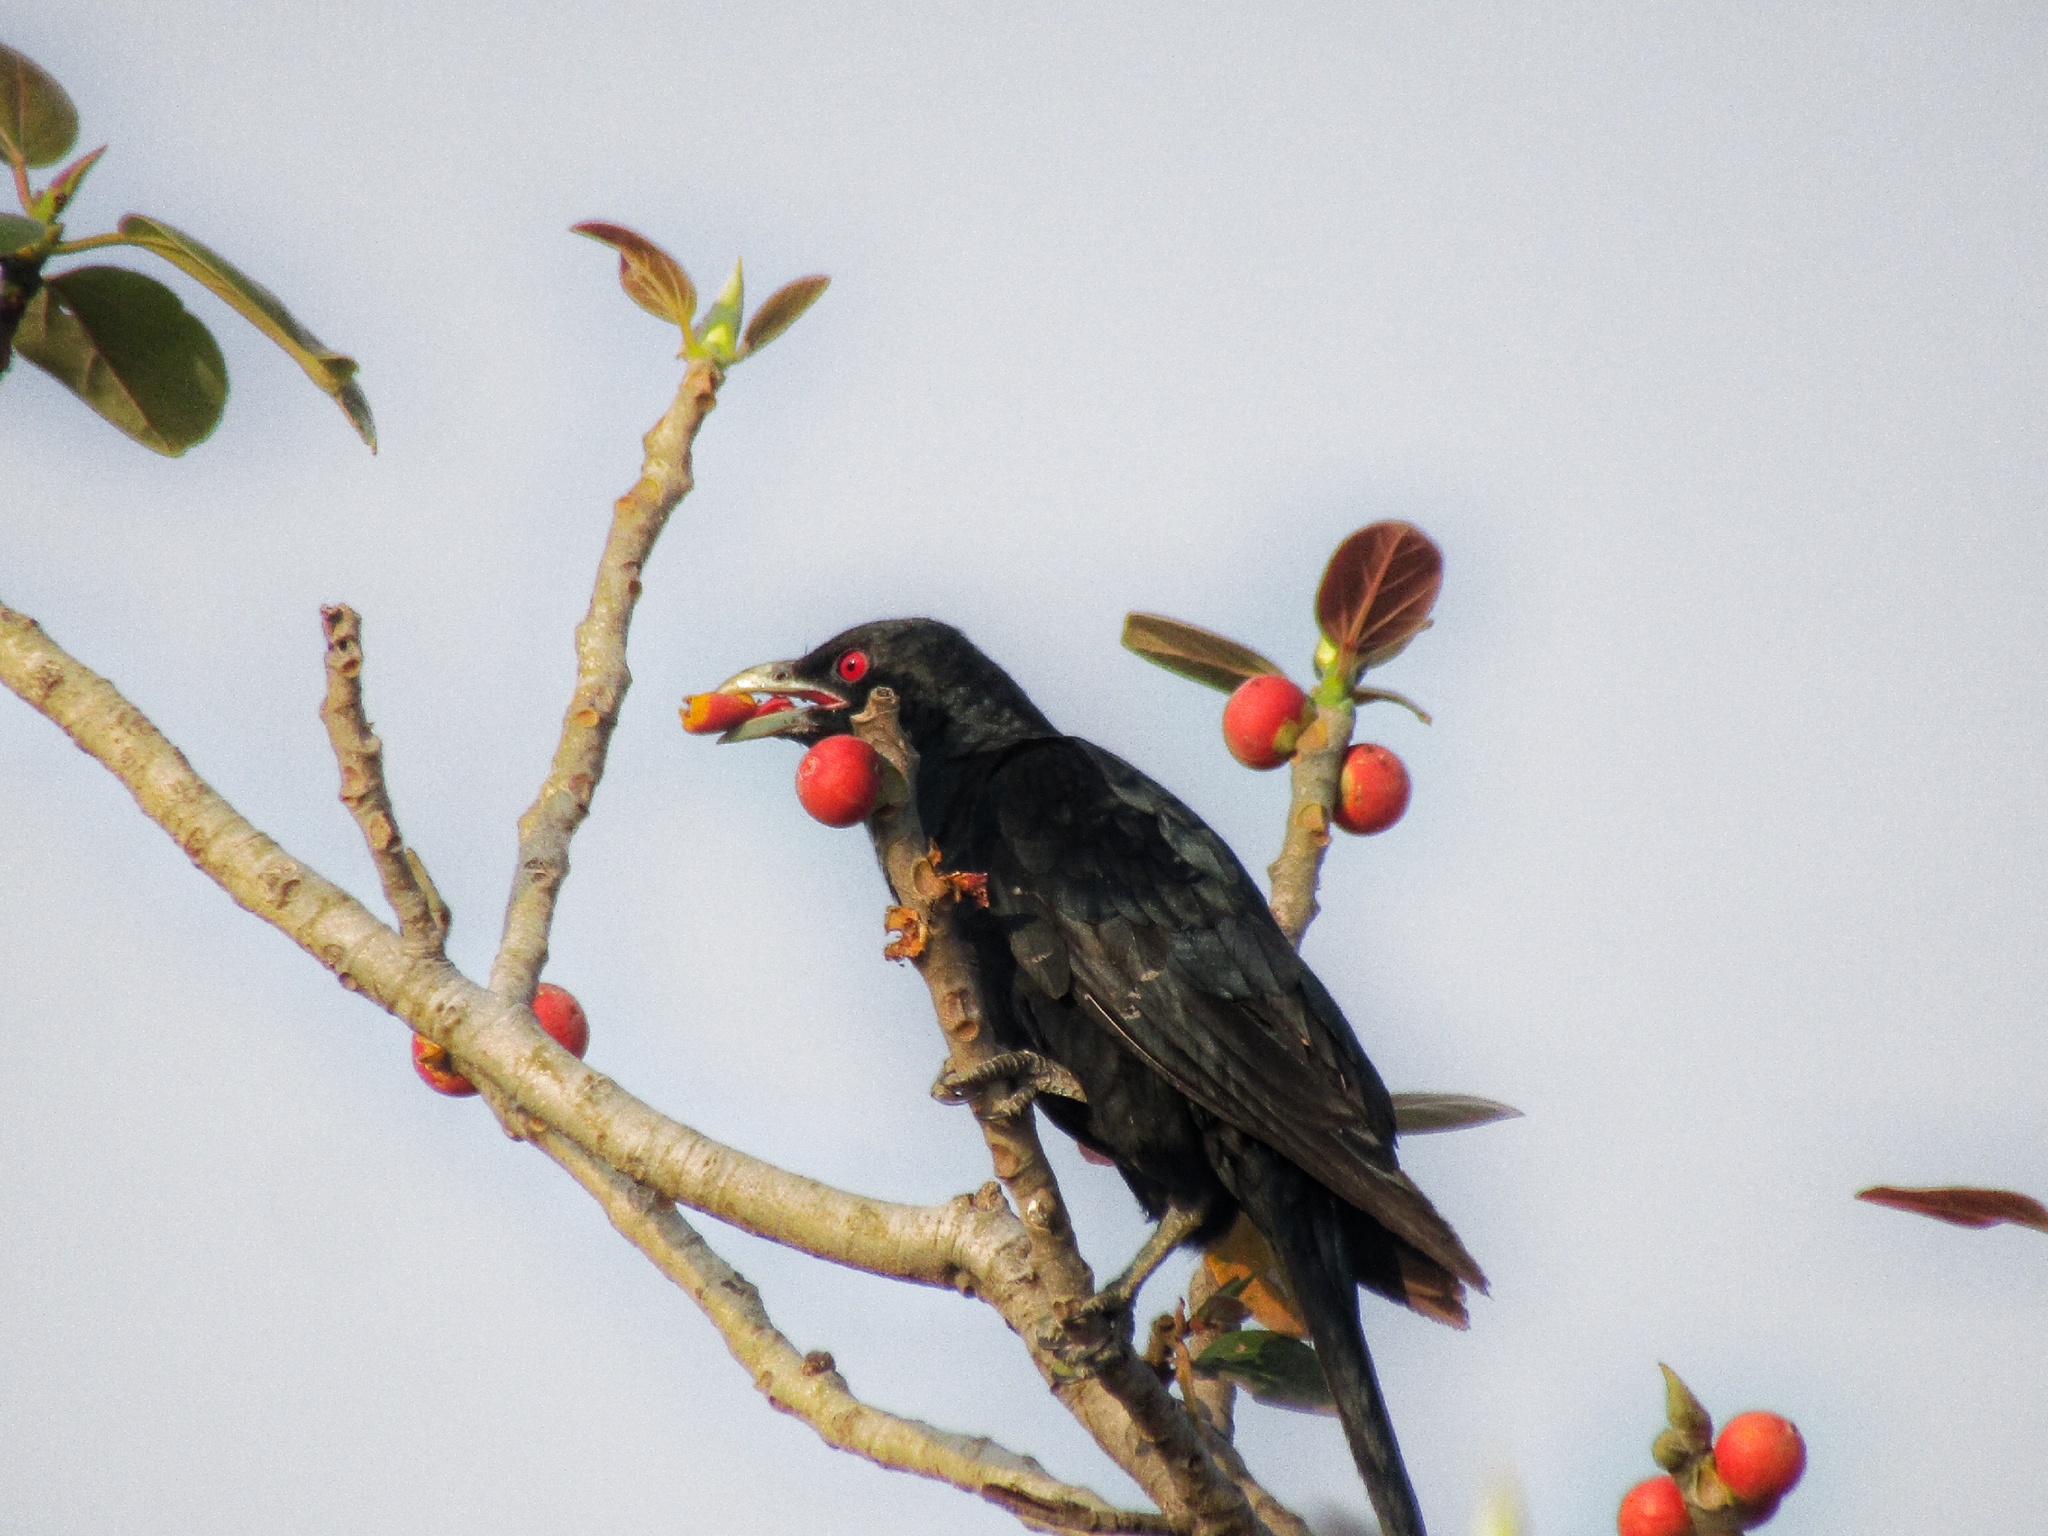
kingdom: Animalia
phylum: Chordata
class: Aves
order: Cuculiformes
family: Cuculidae
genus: Eudynamys
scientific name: Eudynamys scolopaceus
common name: Asian koel
